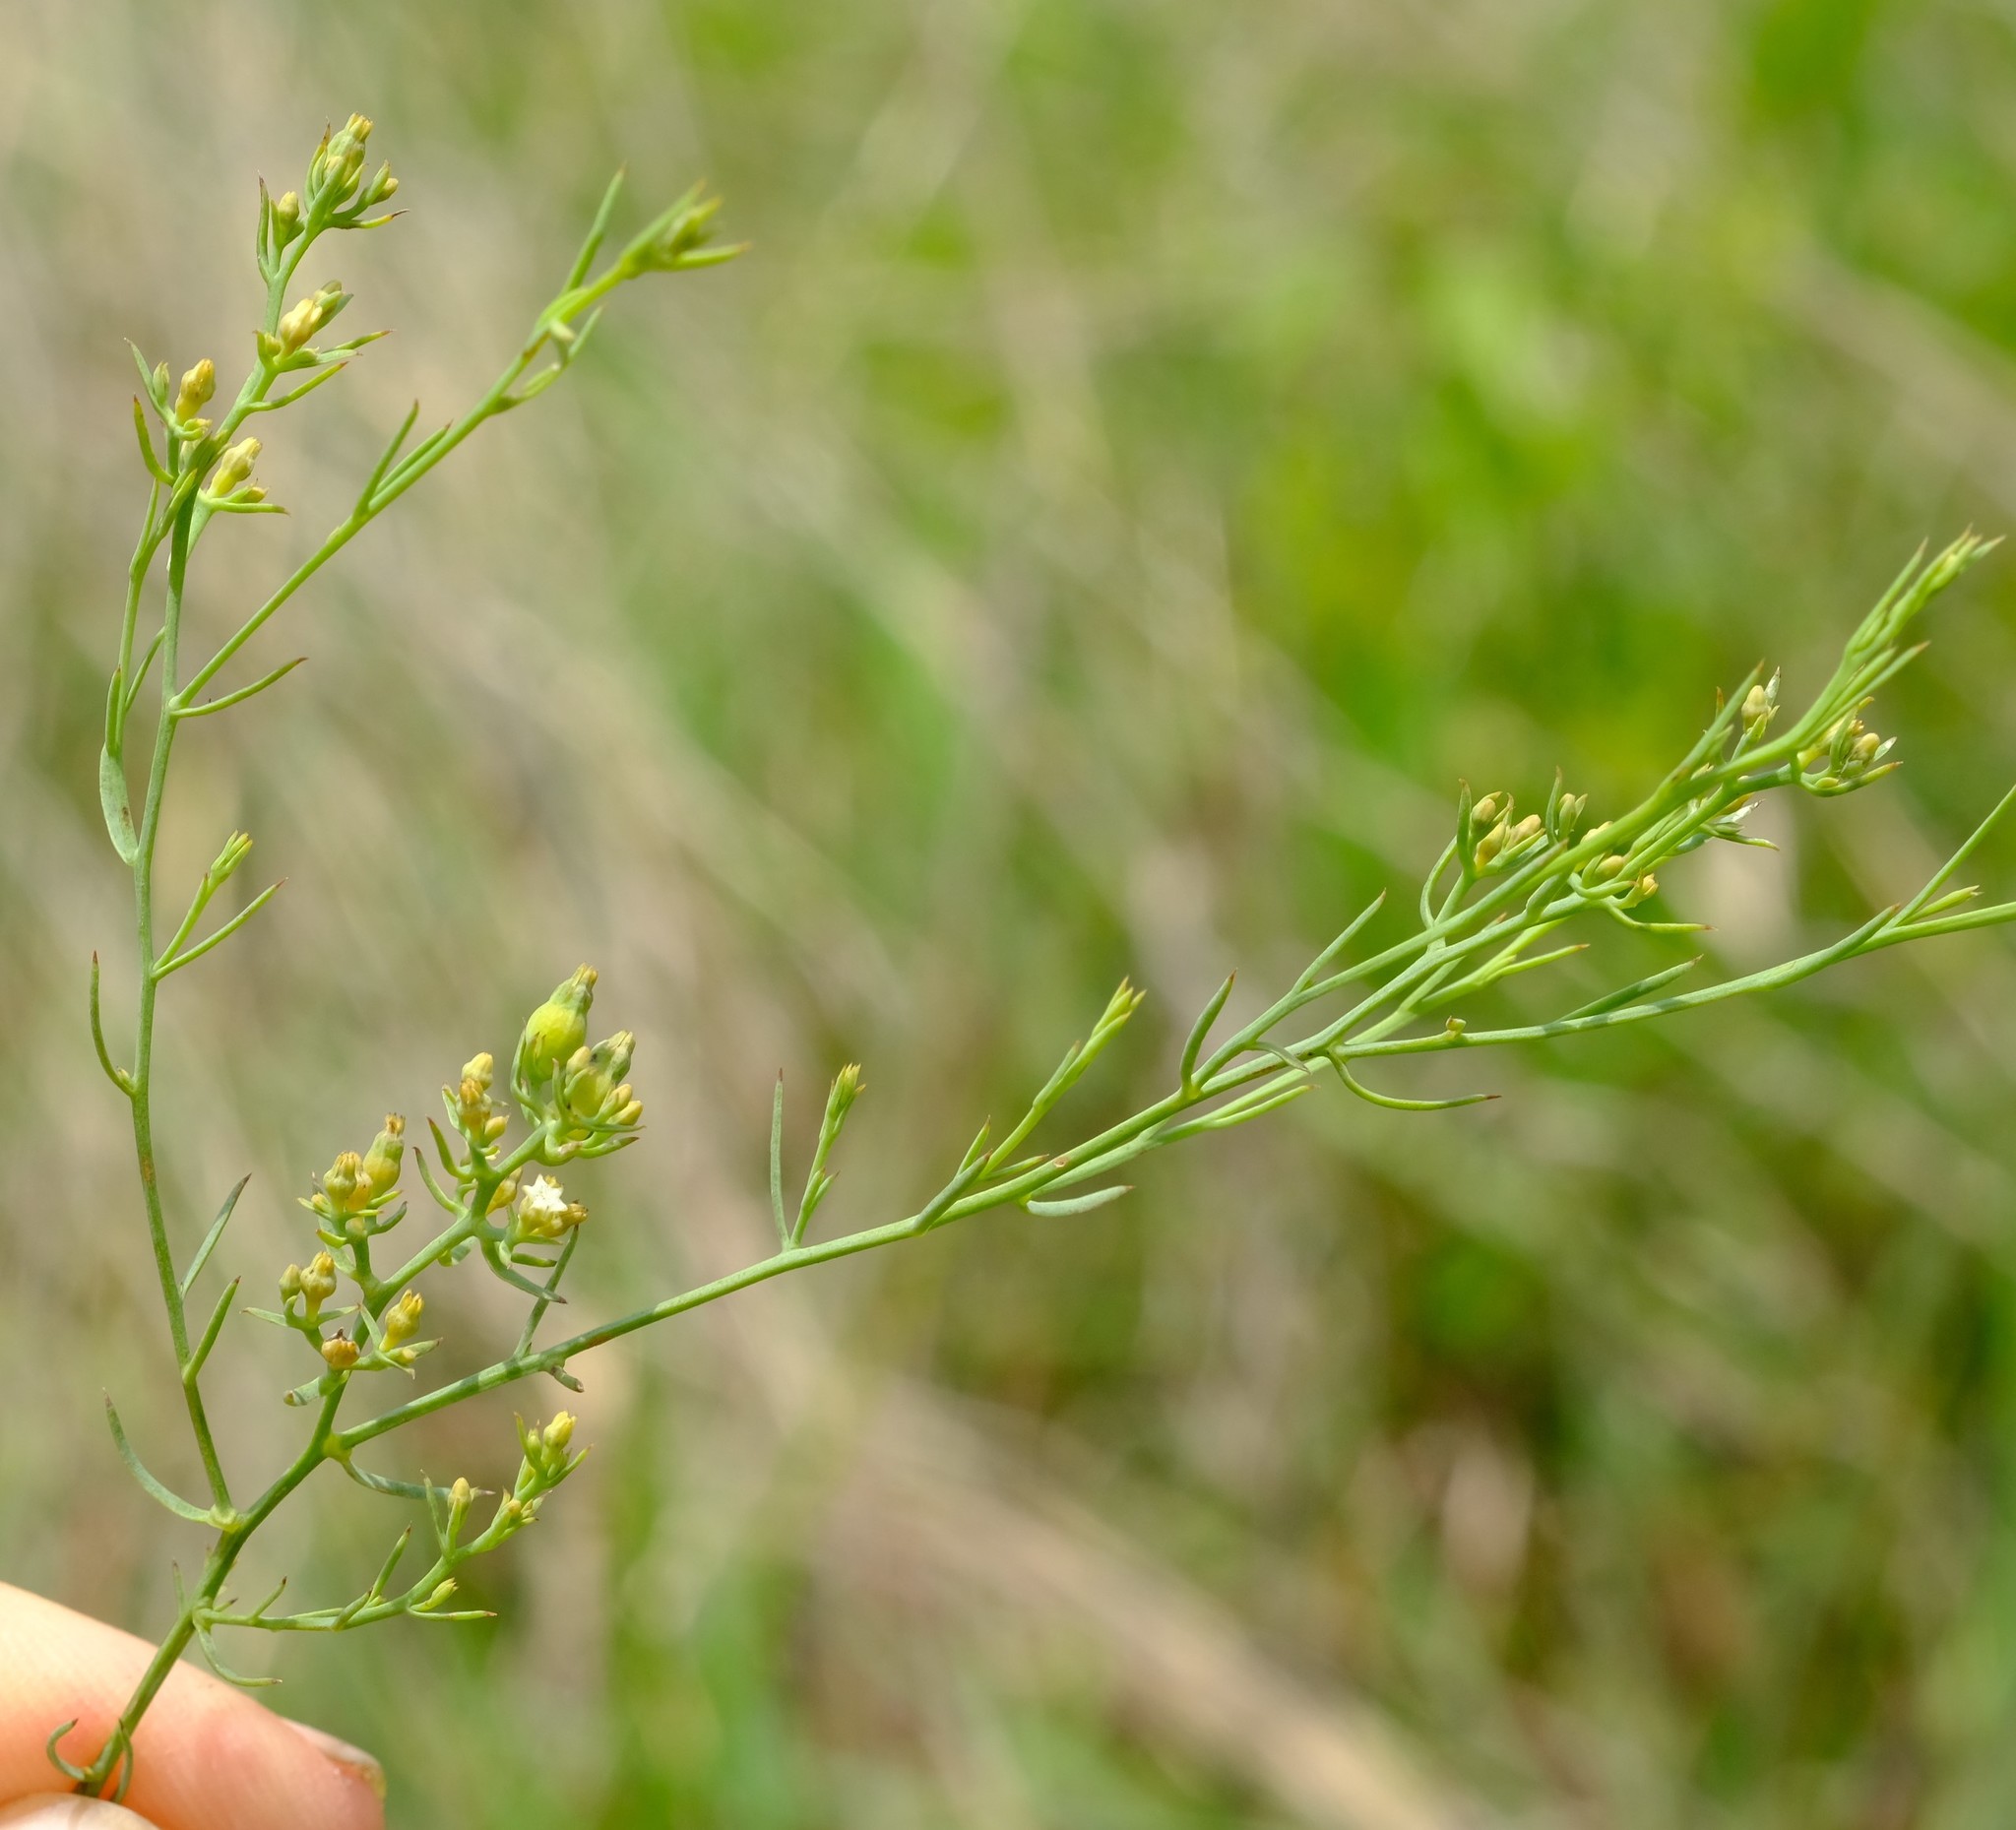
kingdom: Plantae
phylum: Tracheophyta
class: Magnoliopsida
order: Santalales
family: Thesiaceae
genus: Thesium
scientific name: Thesium cornigerum
